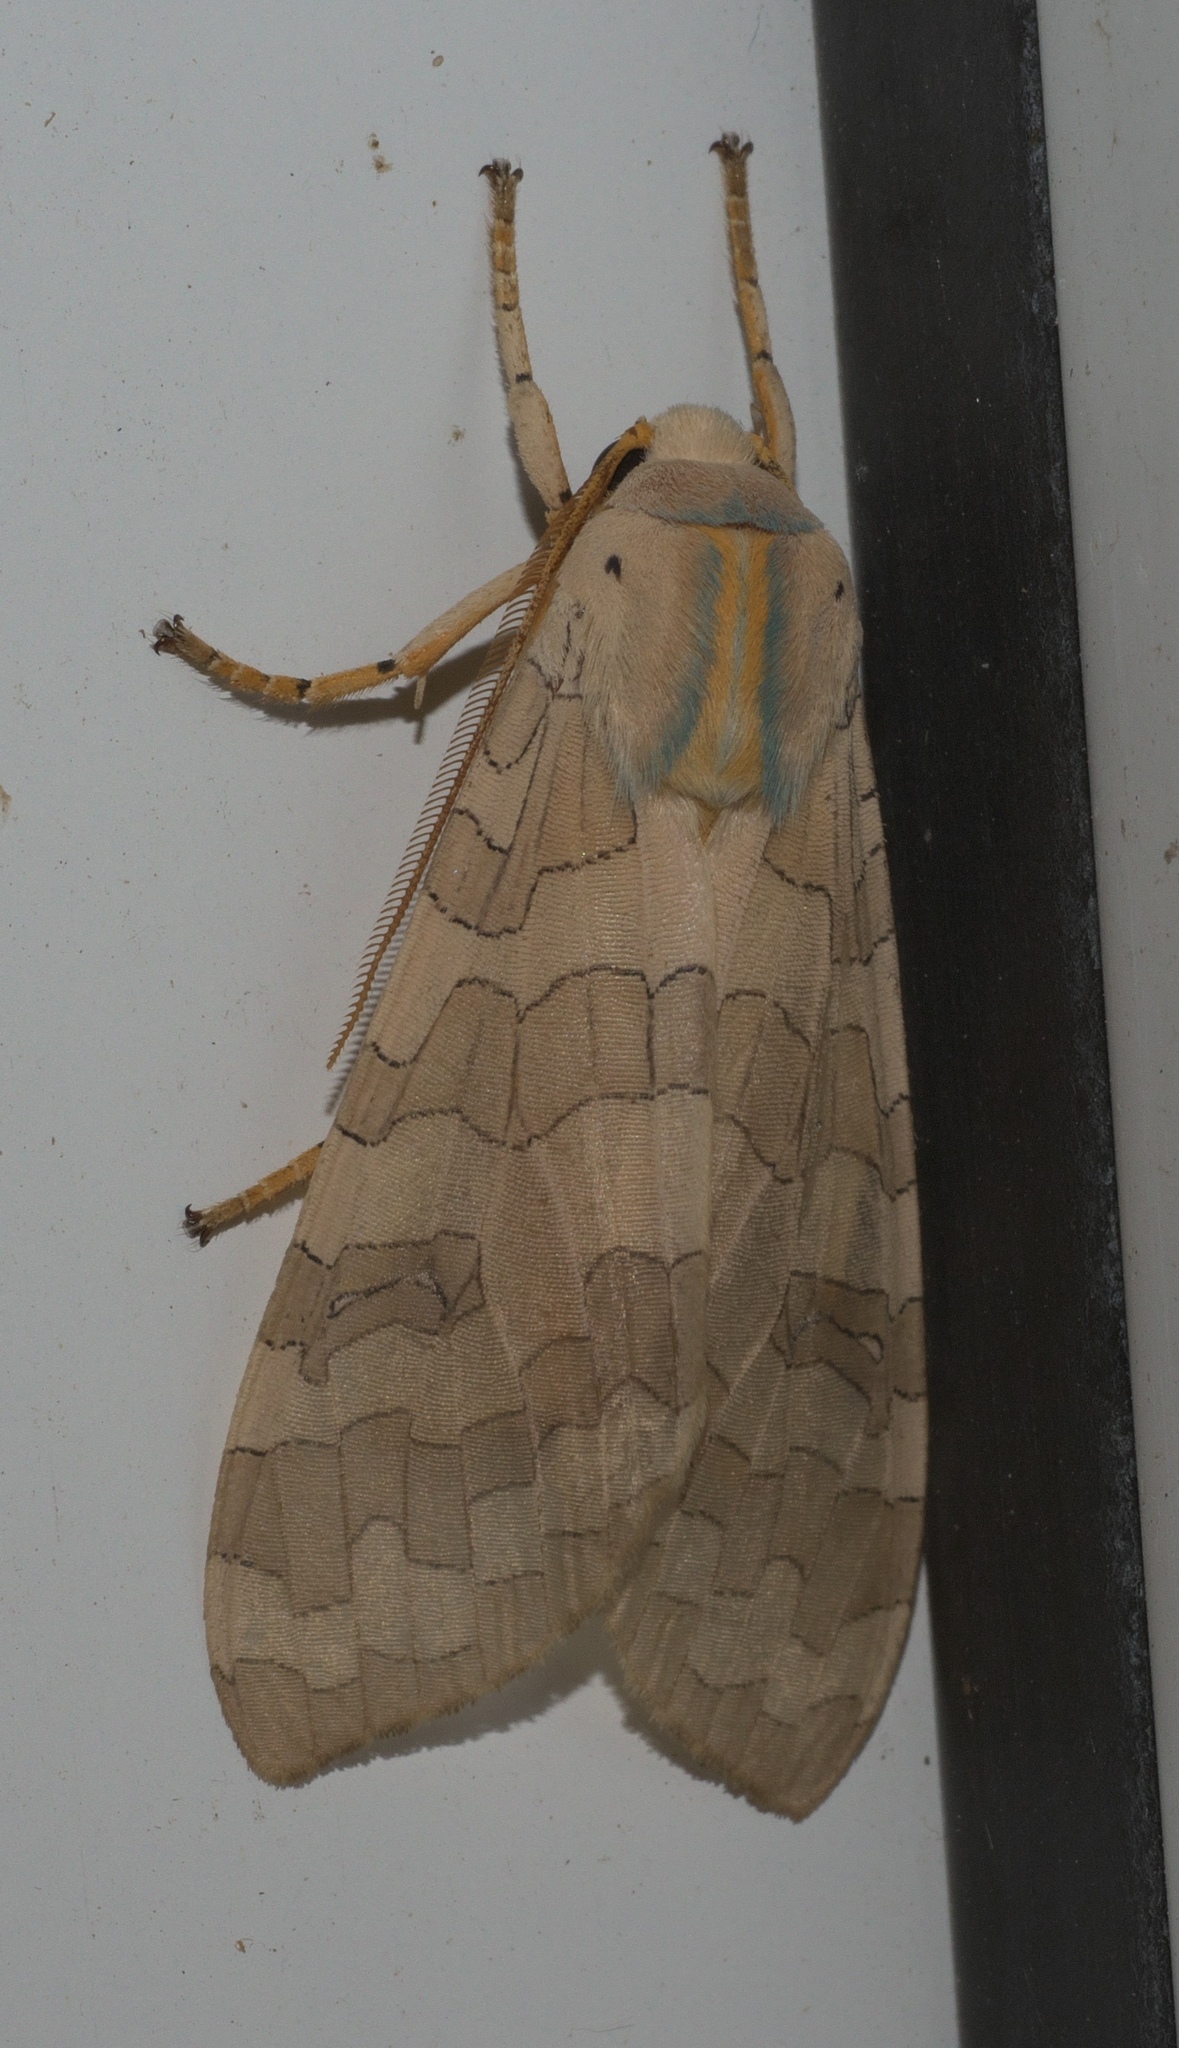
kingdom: Animalia
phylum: Arthropoda
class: Insecta
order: Lepidoptera
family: Erebidae
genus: Halysidota
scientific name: Halysidota
